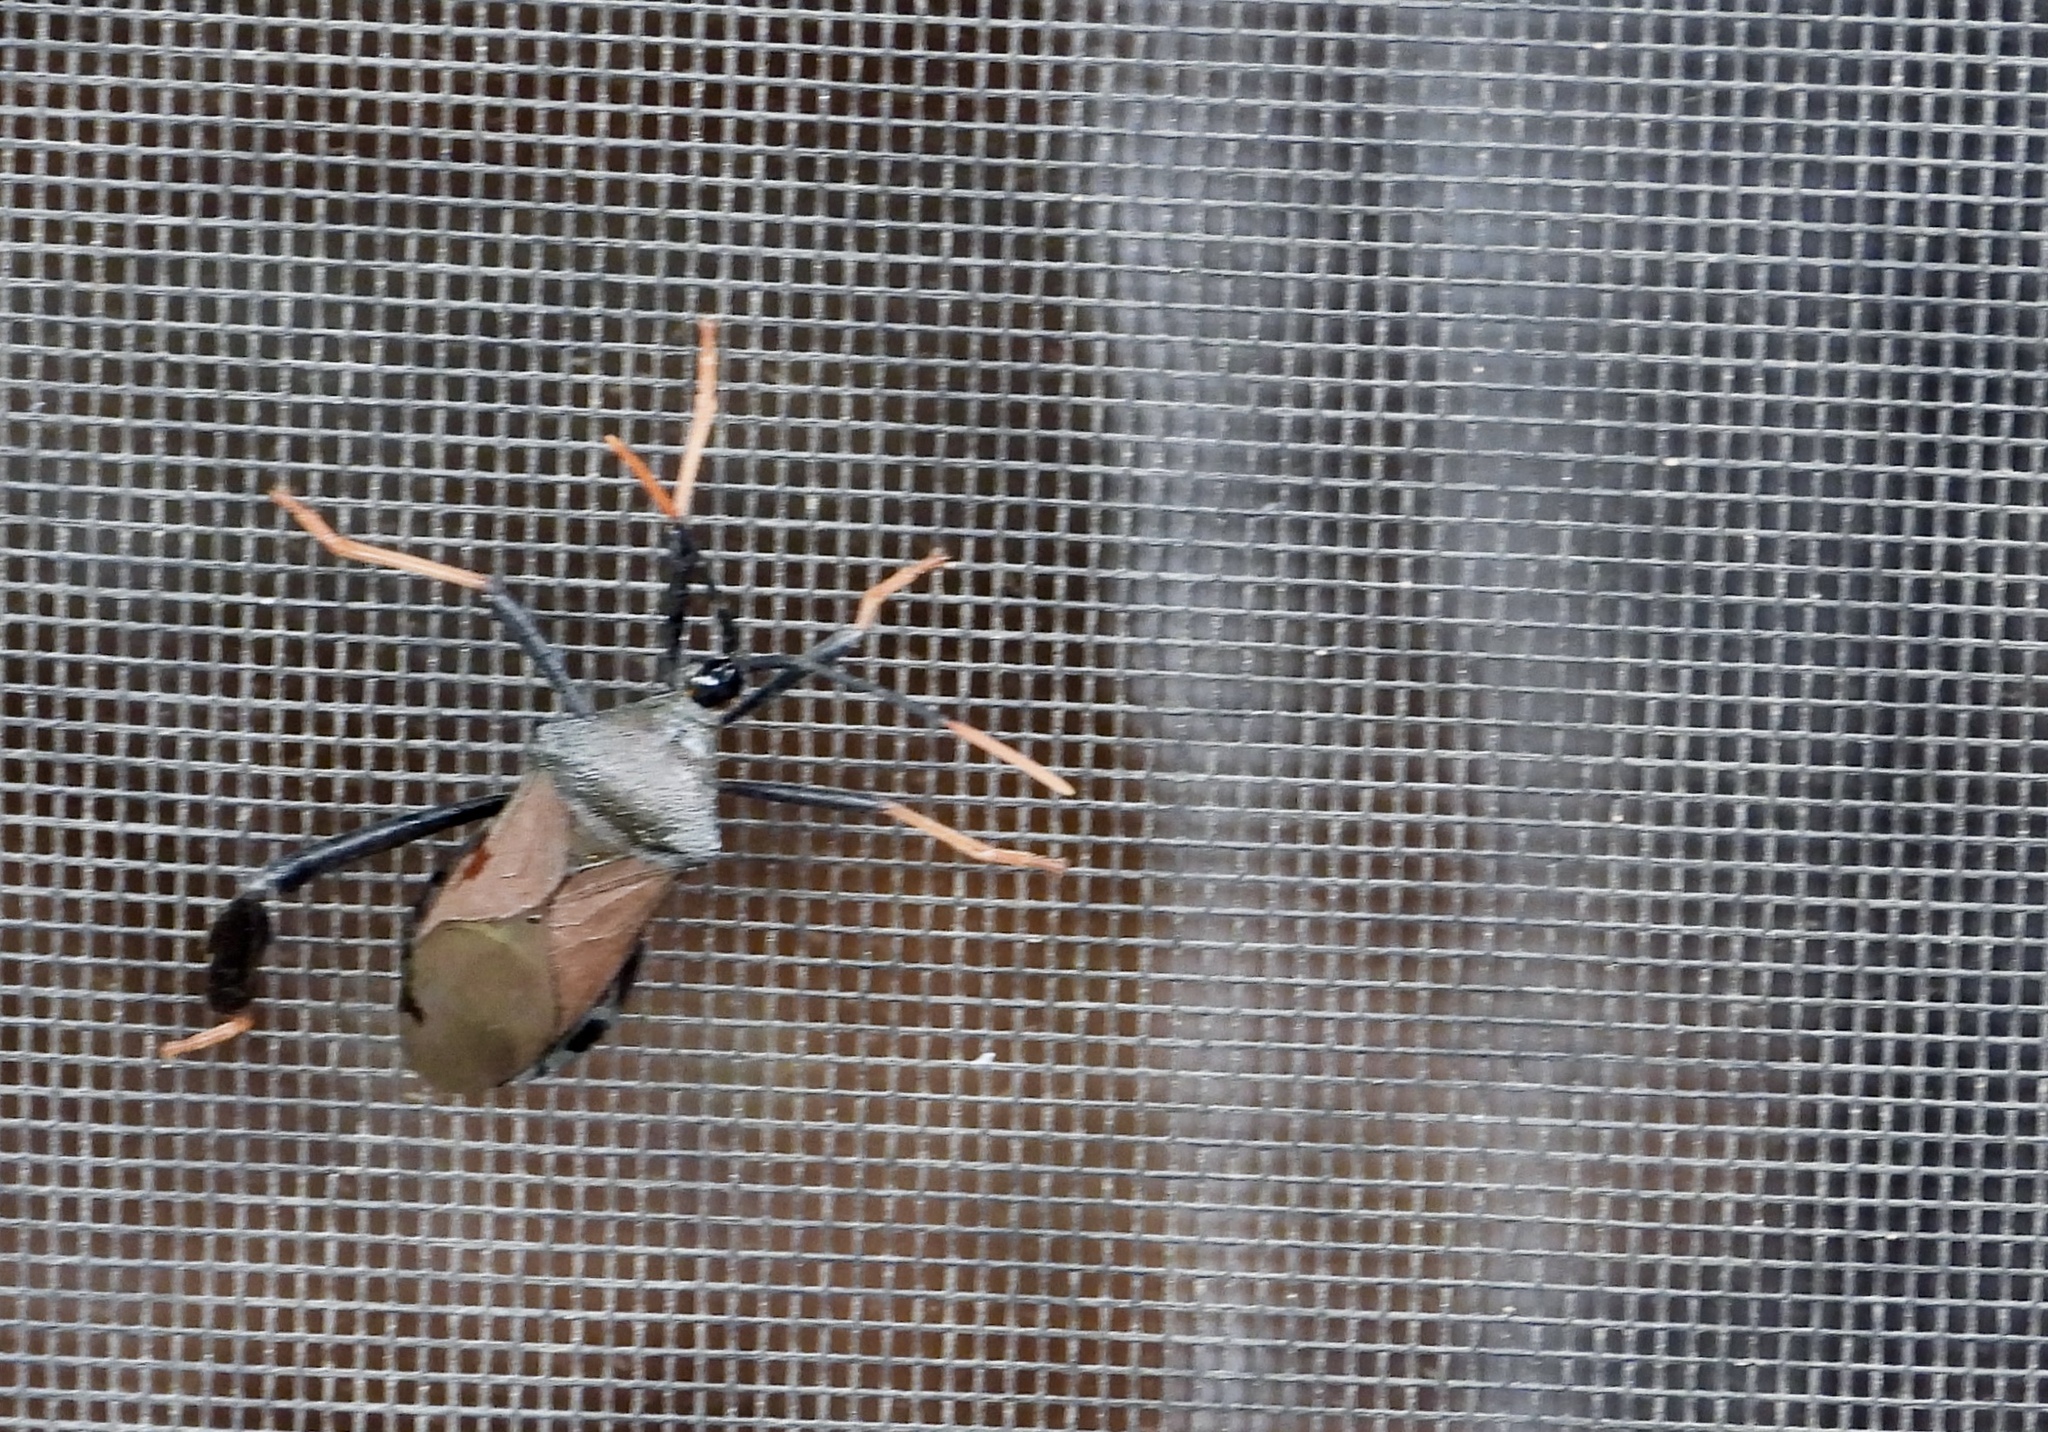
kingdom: Animalia
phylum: Arthropoda
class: Insecta
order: Hemiptera
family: Coreidae
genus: Acanthocephala
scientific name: Acanthocephala thomasi
